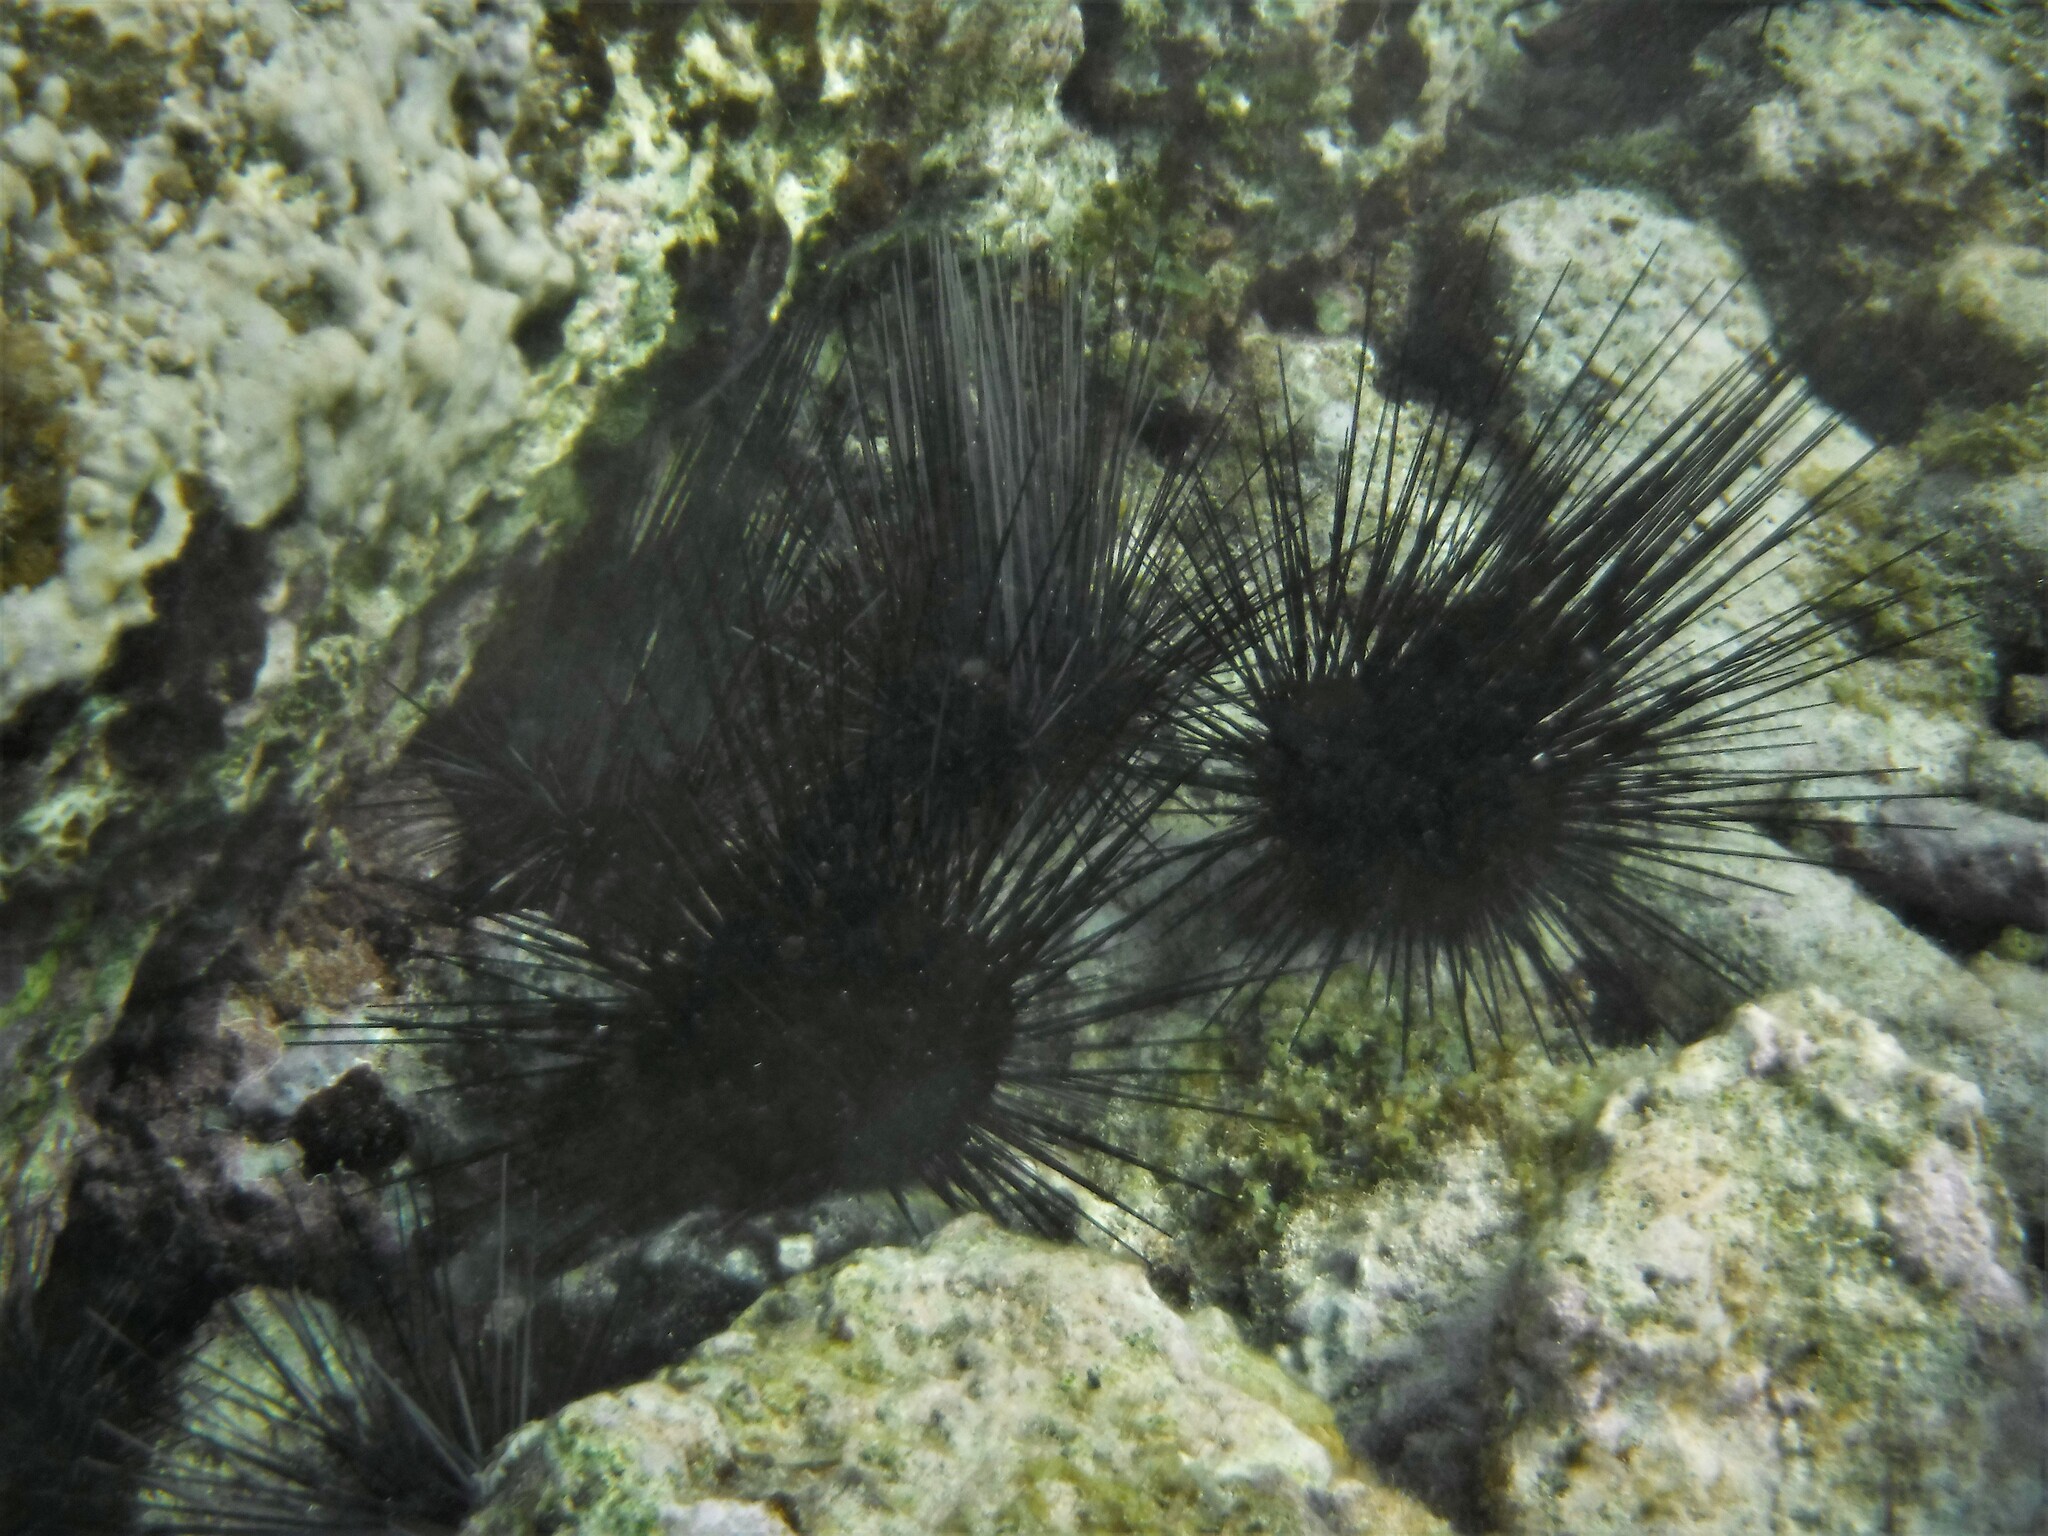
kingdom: Animalia
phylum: Echinodermata
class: Echinoidea
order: Diadematoida
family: Diadematidae
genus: Diadema
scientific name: Diadema antillarum
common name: Spiny urchin
